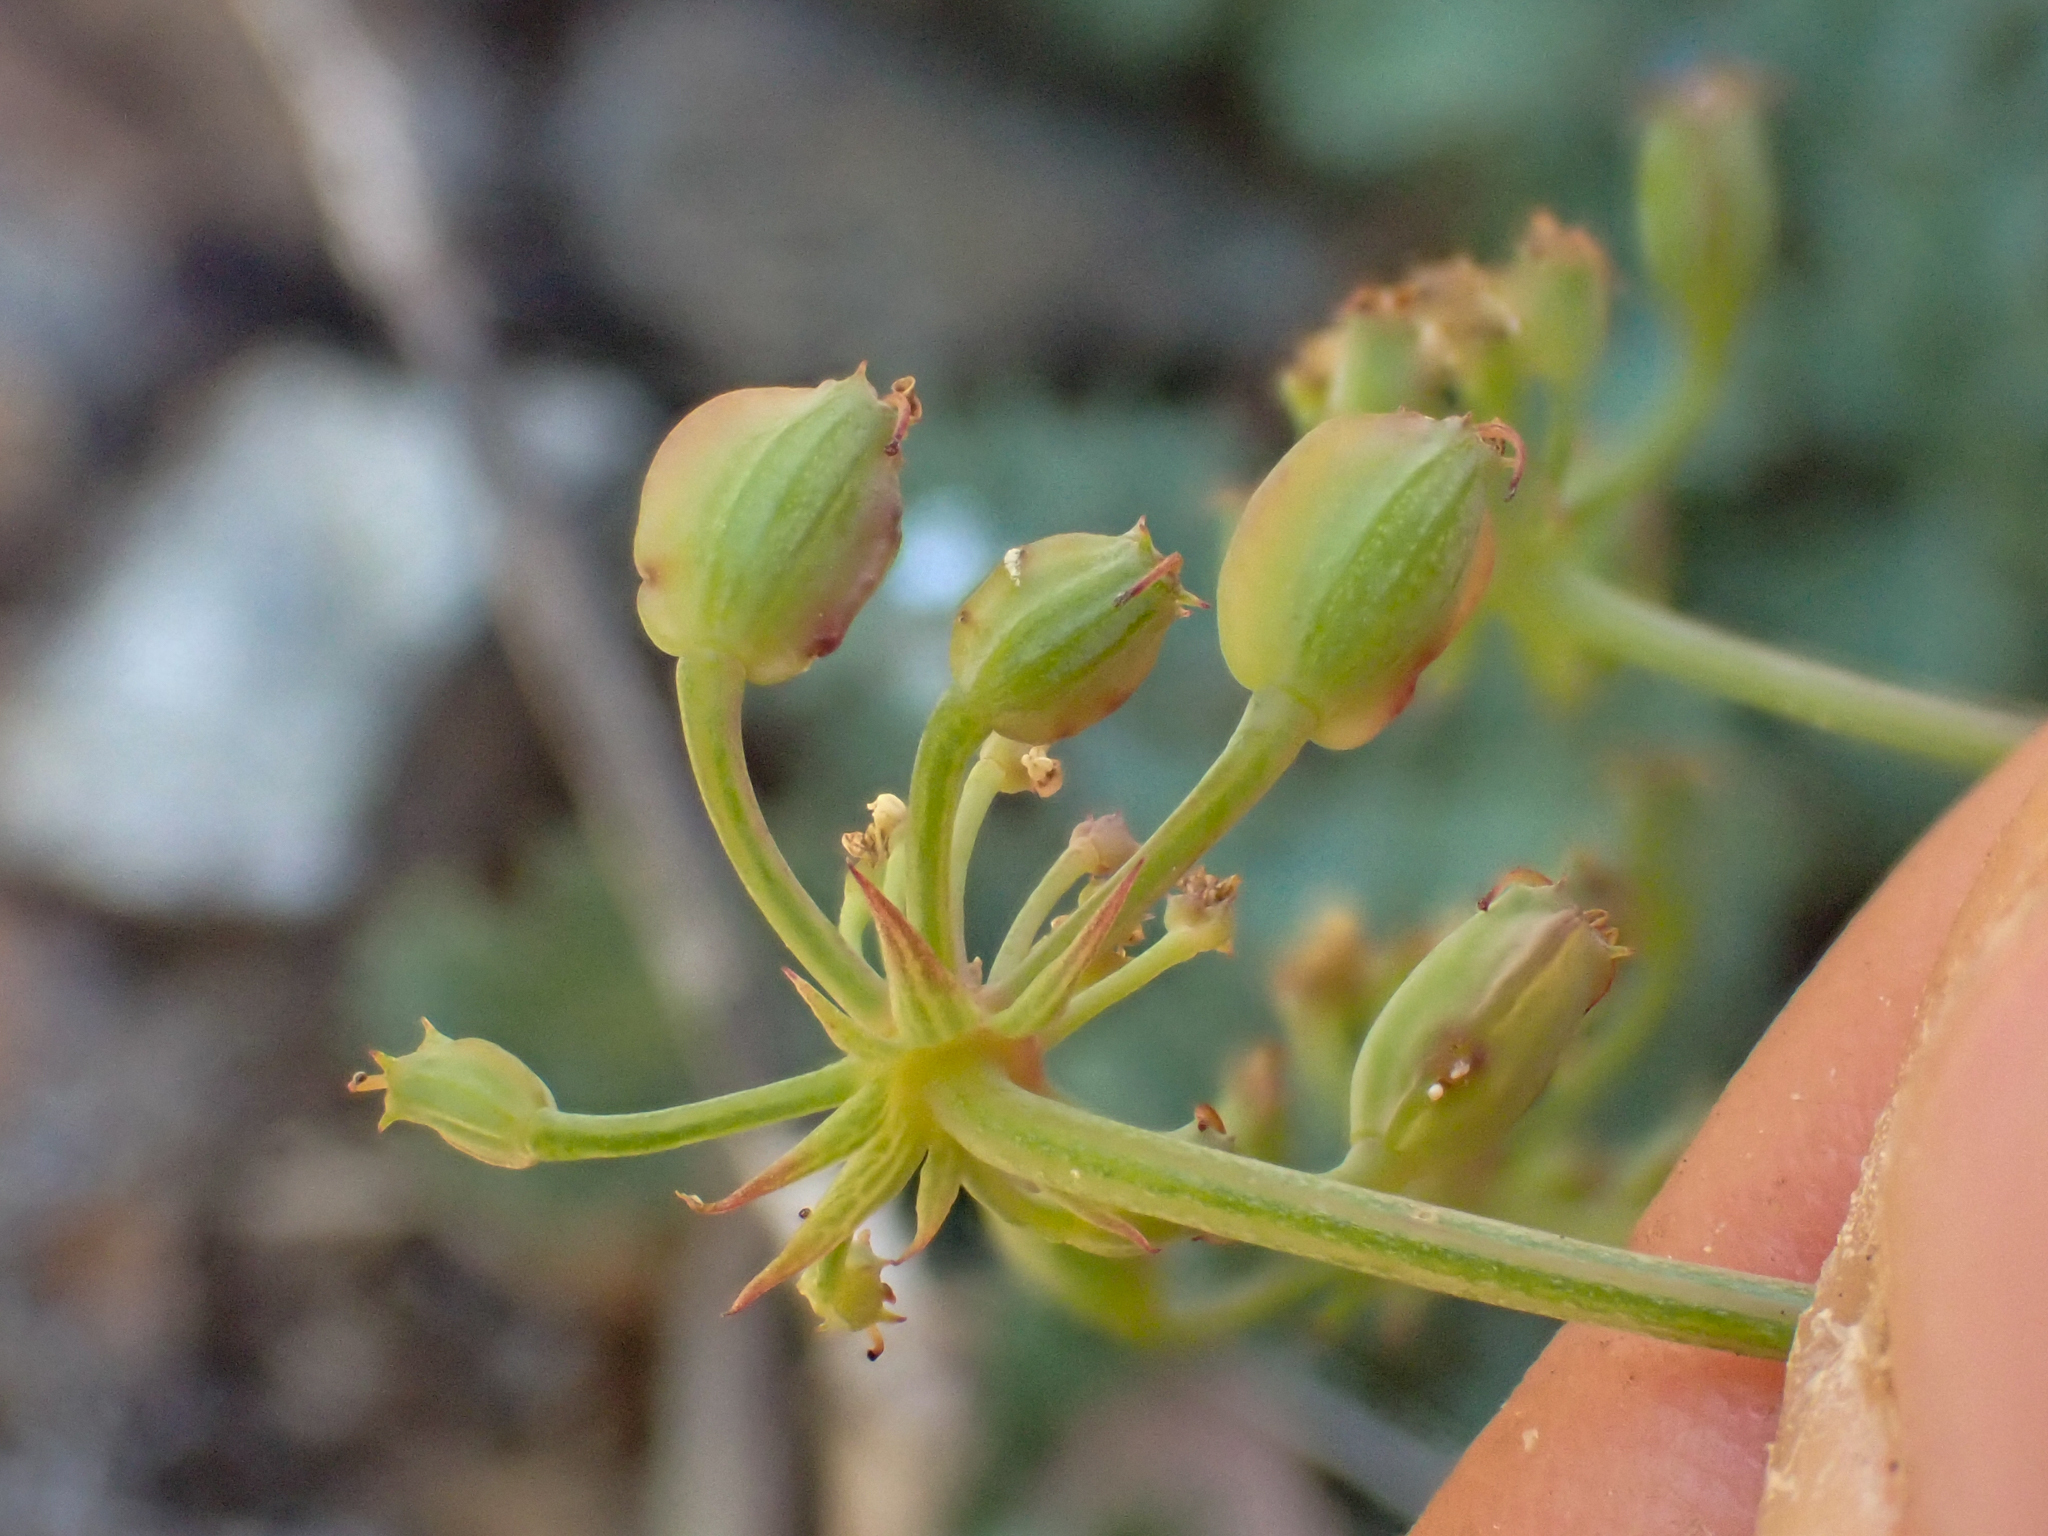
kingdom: Plantae
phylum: Tracheophyta
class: Magnoliopsida
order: Apiales
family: Apiaceae
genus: Lomatium
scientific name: Lomatium howellii
